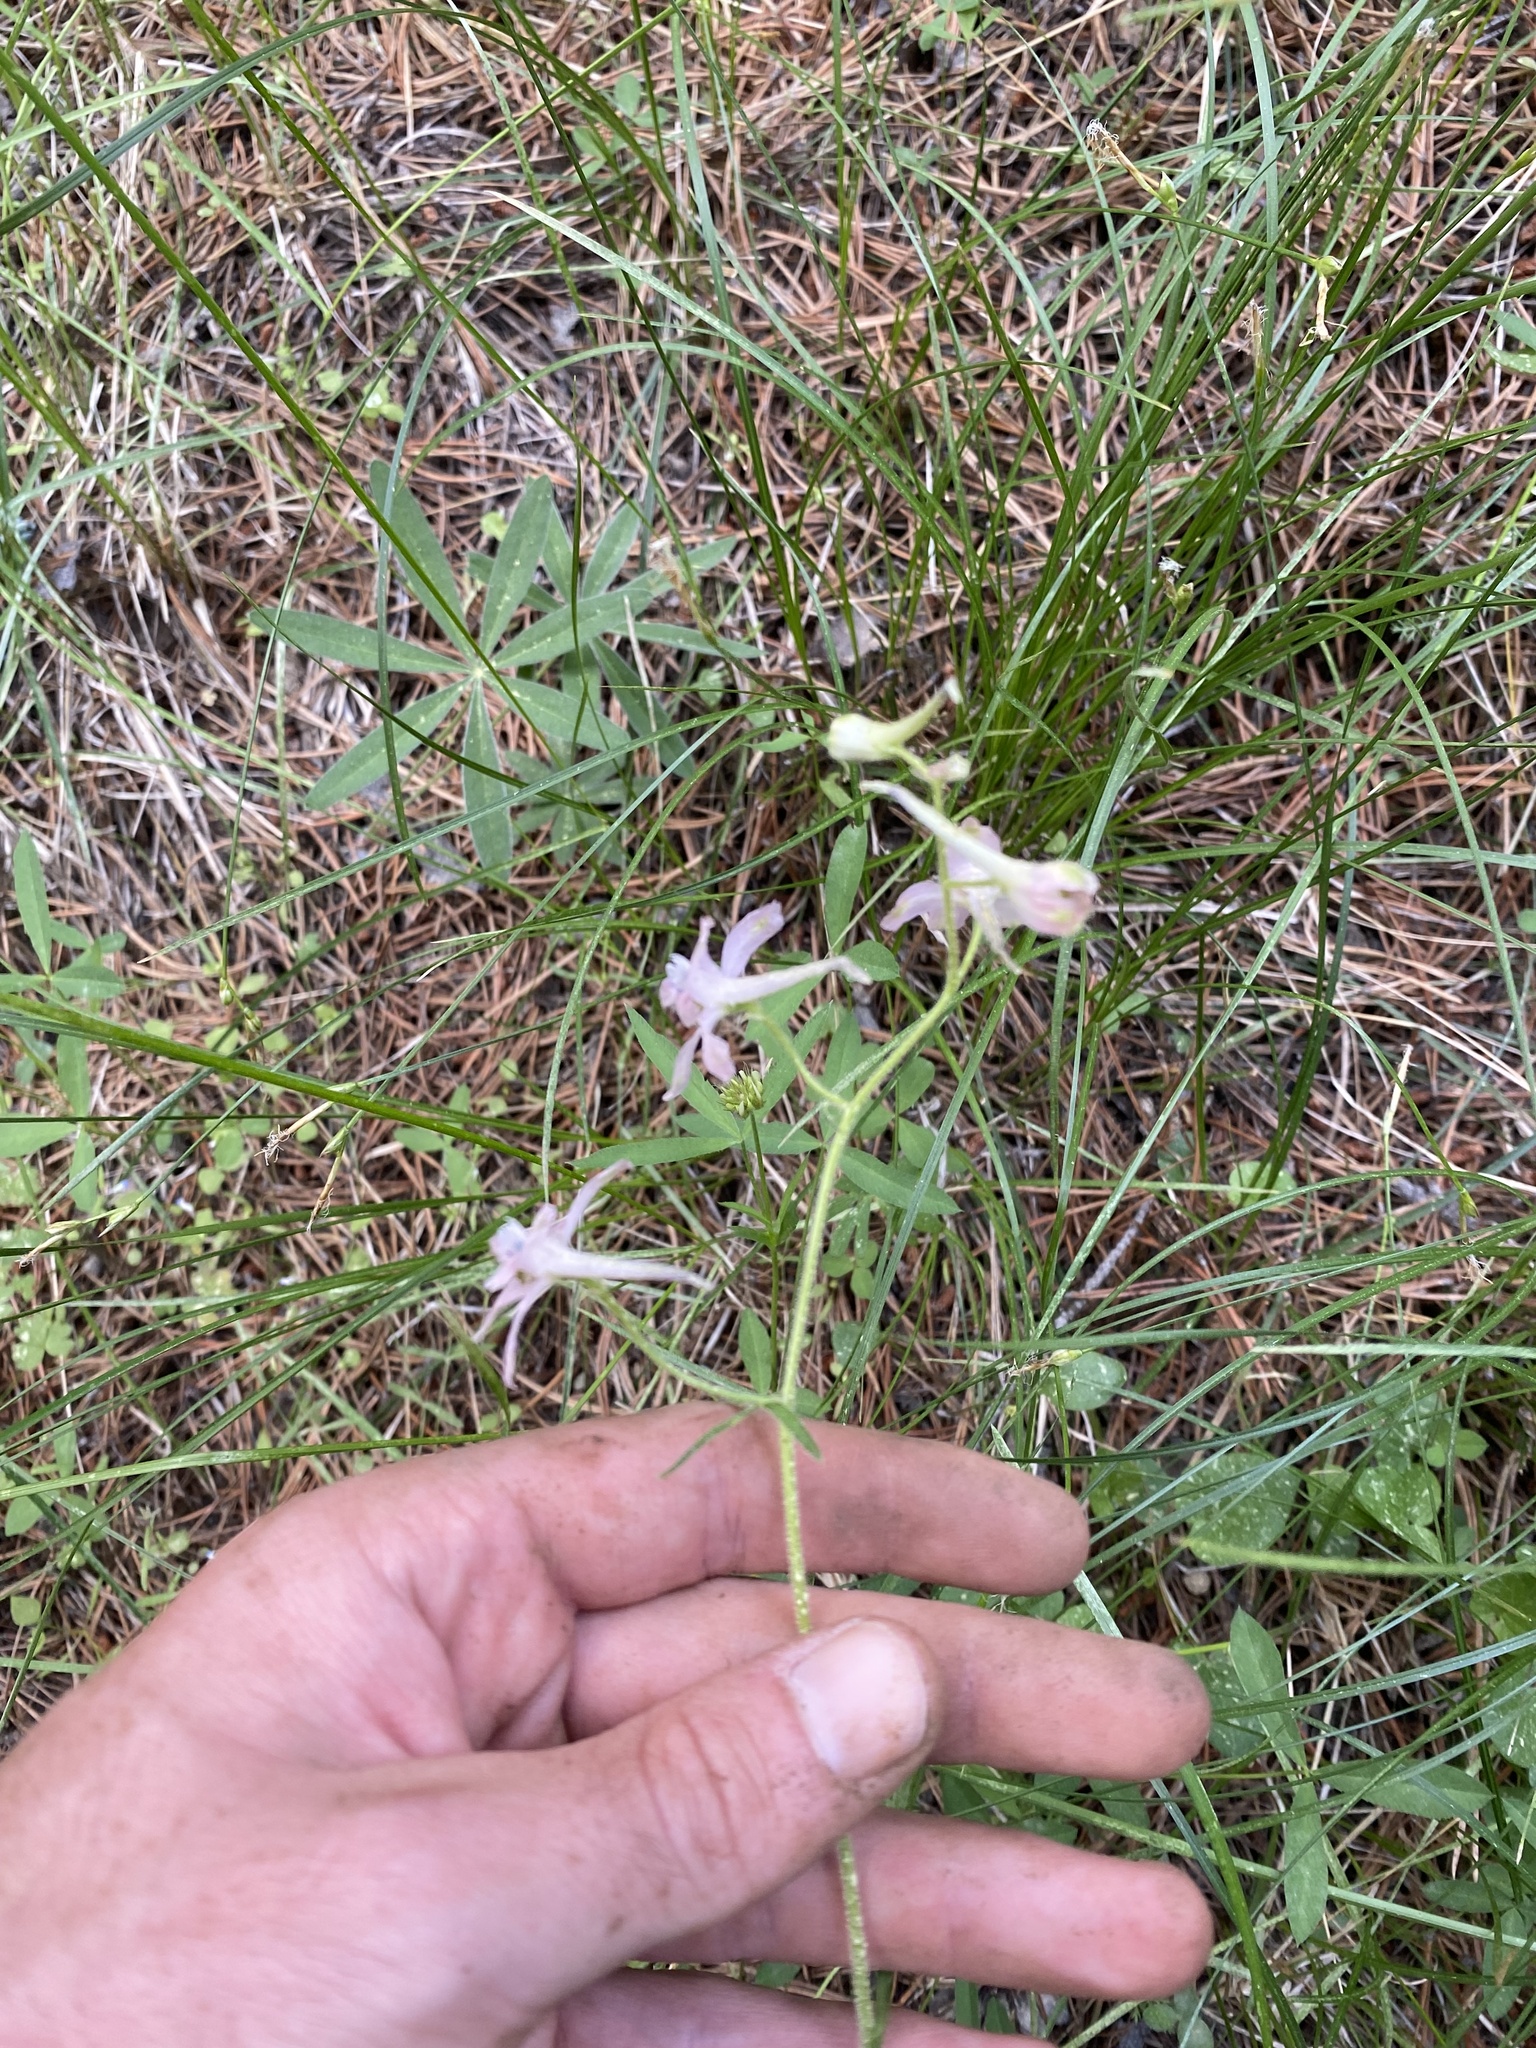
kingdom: Plantae
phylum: Tracheophyta
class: Magnoliopsida
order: Ranunculales
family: Ranunculaceae
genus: Delphinium
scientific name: Delphinium nuttallianum
